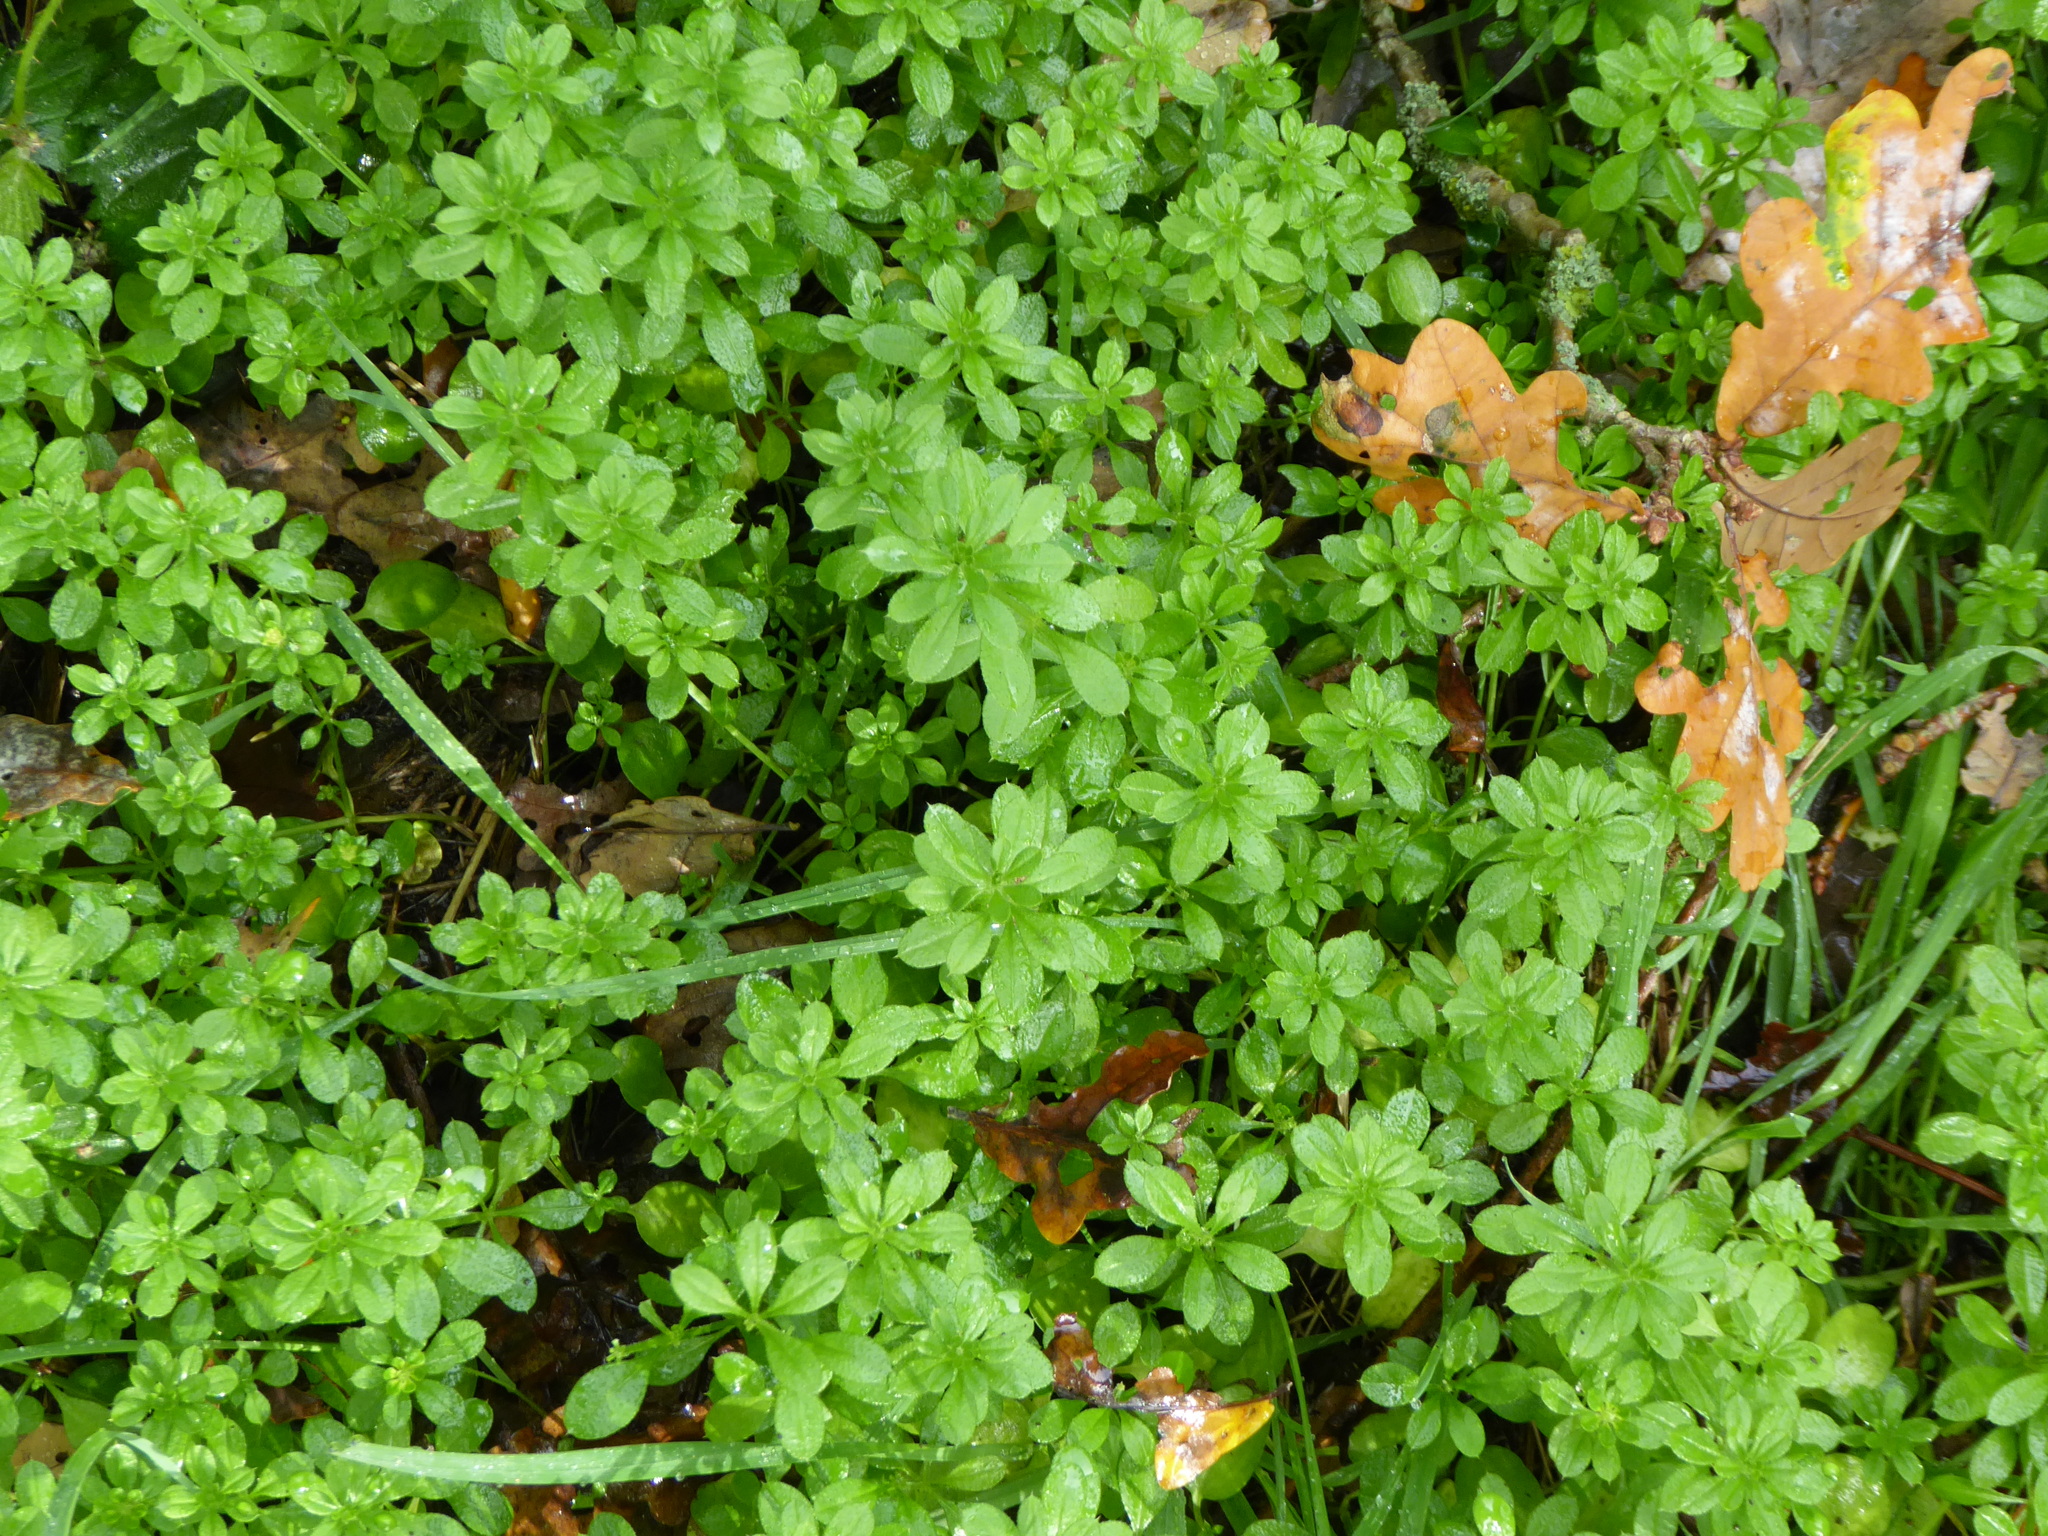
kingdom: Plantae
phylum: Tracheophyta
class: Magnoliopsida
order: Gentianales
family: Rubiaceae
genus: Galium
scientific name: Galium aparine
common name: Cleavers
